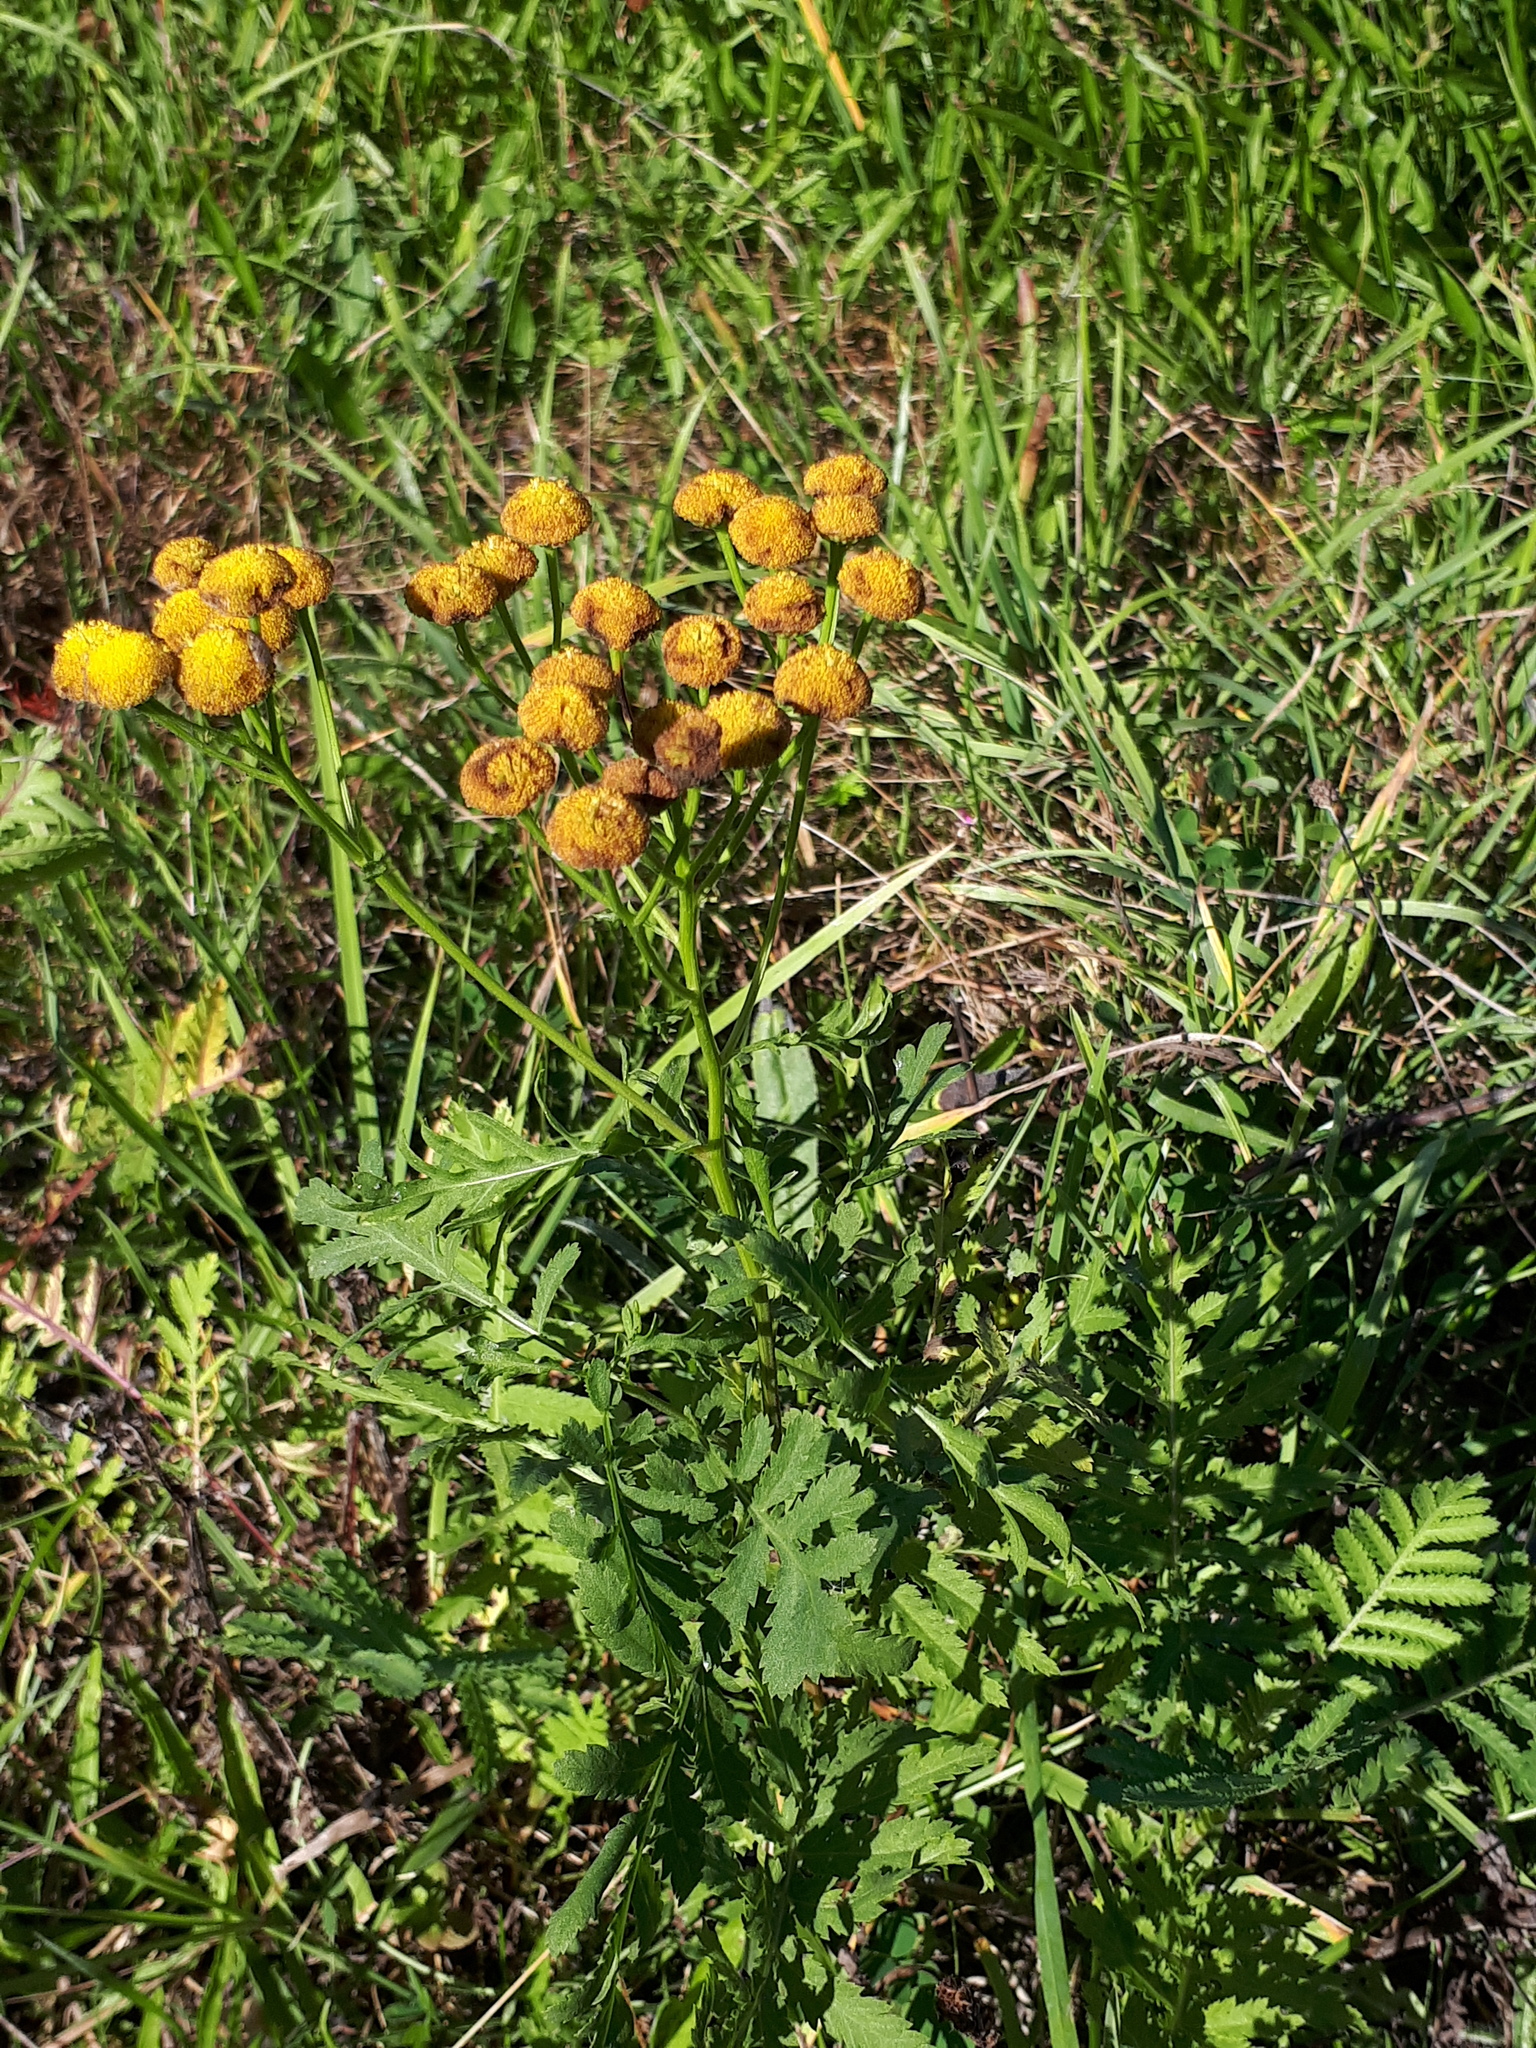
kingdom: Plantae
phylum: Tracheophyta
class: Magnoliopsida
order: Asterales
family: Asteraceae
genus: Tanacetum
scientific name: Tanacetum vulgare
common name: Common tansy
